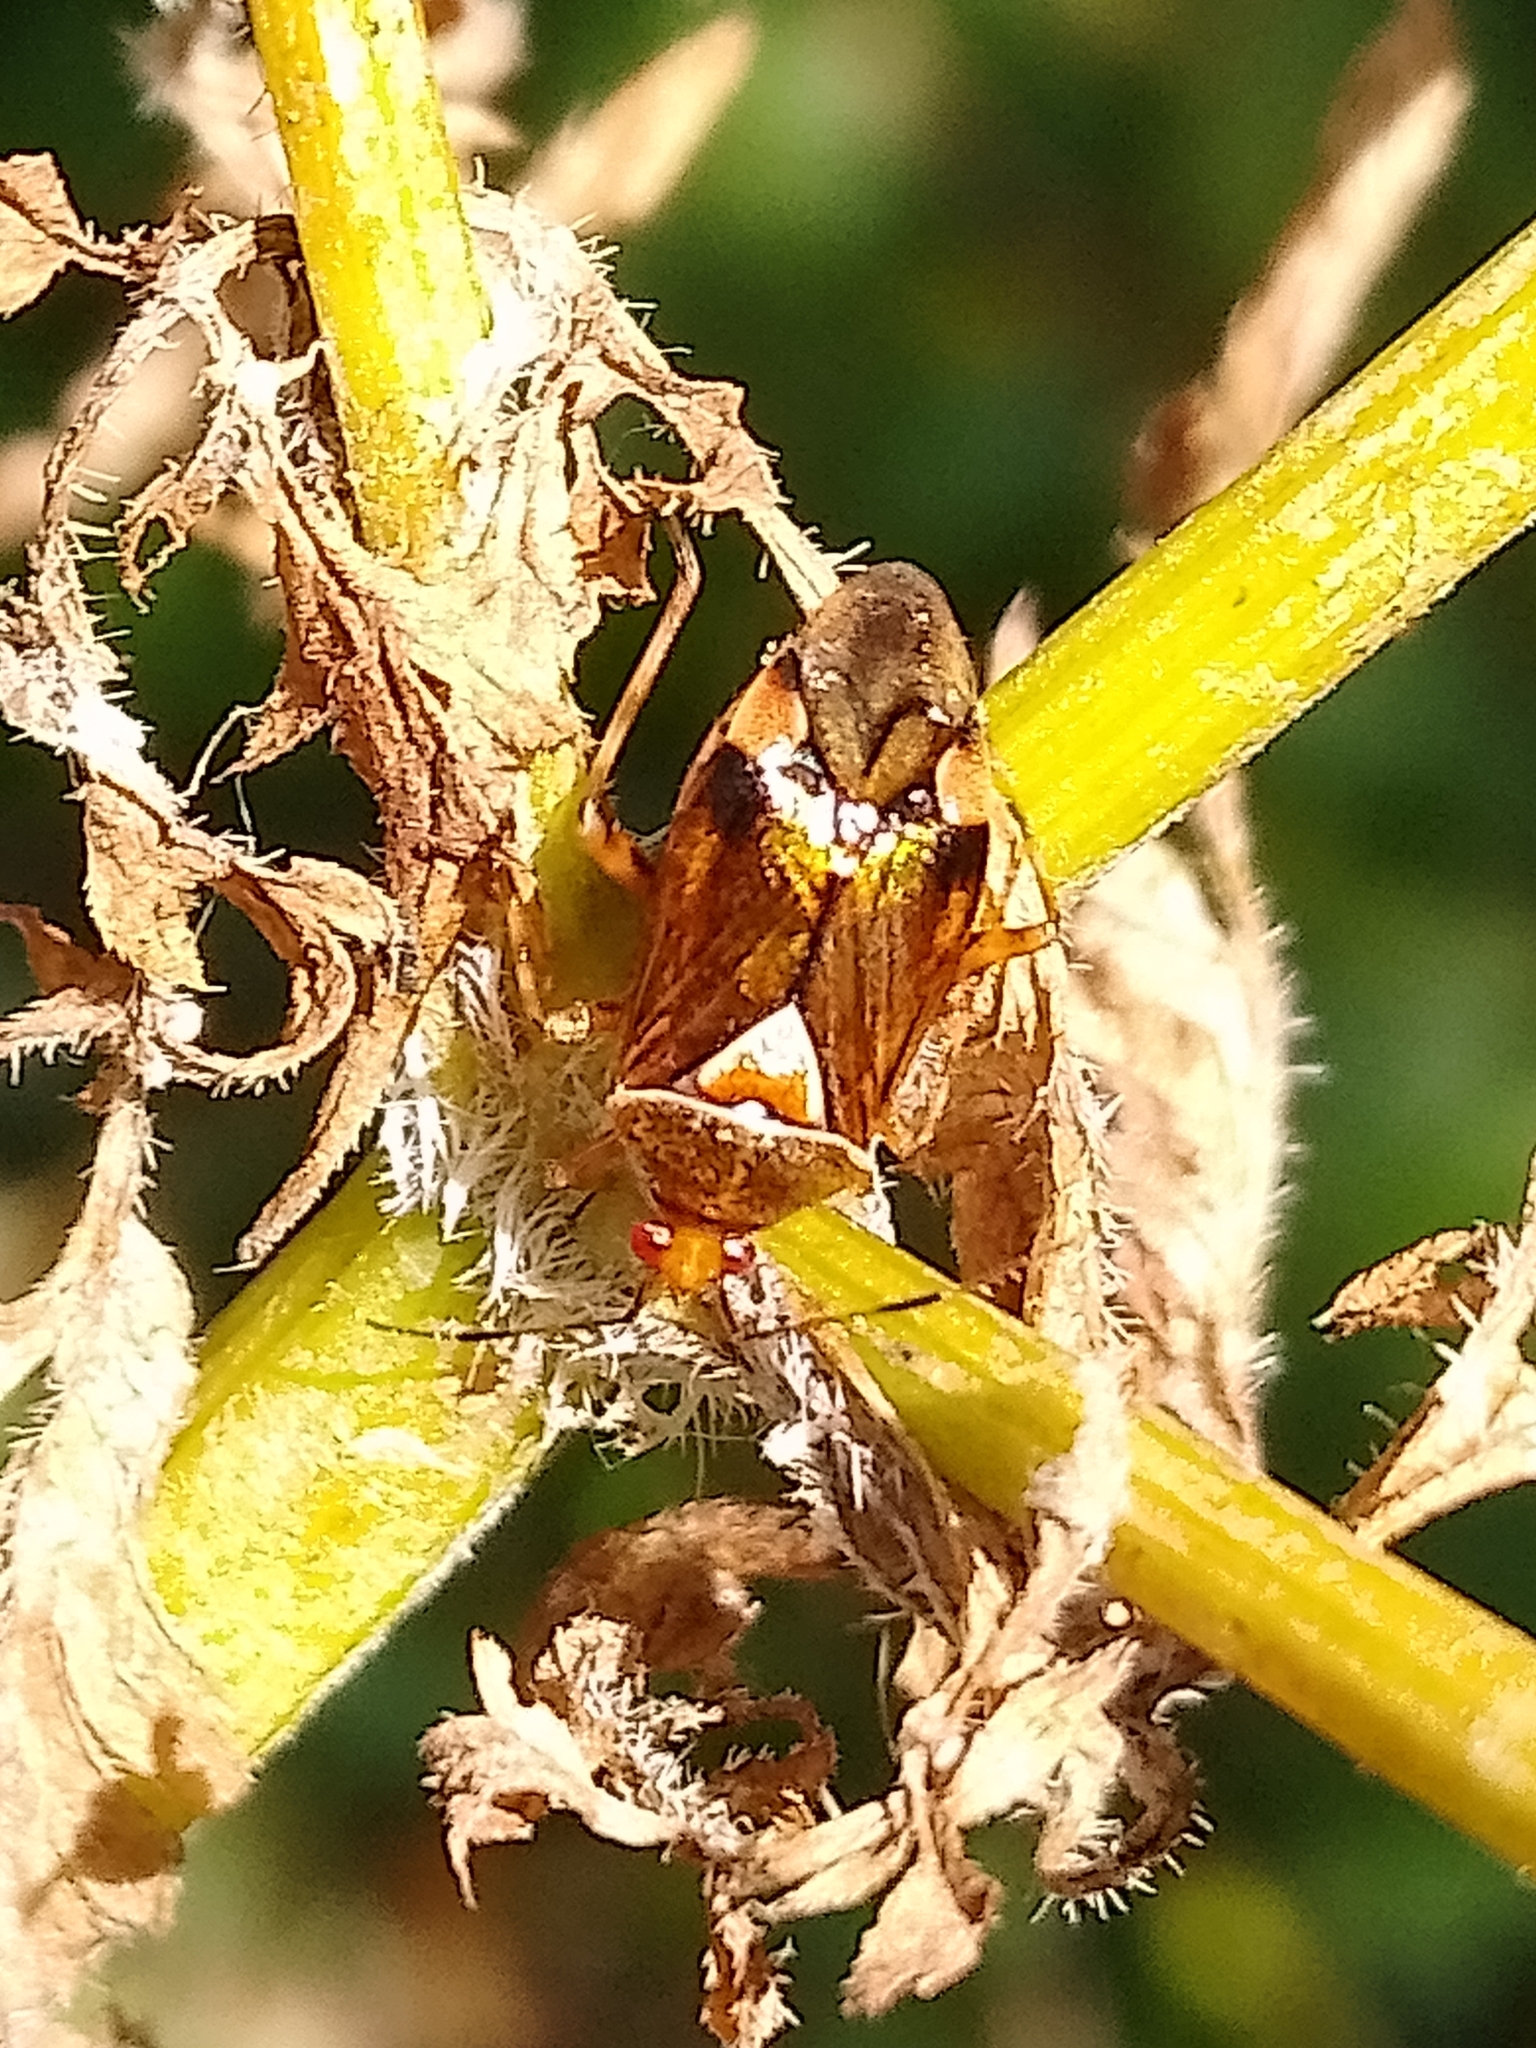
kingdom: Animalia
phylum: Arthropoda
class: Insecta
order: Hemiptera
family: Miridae
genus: Deraeocoris
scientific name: Deraeocoris flavilinea
